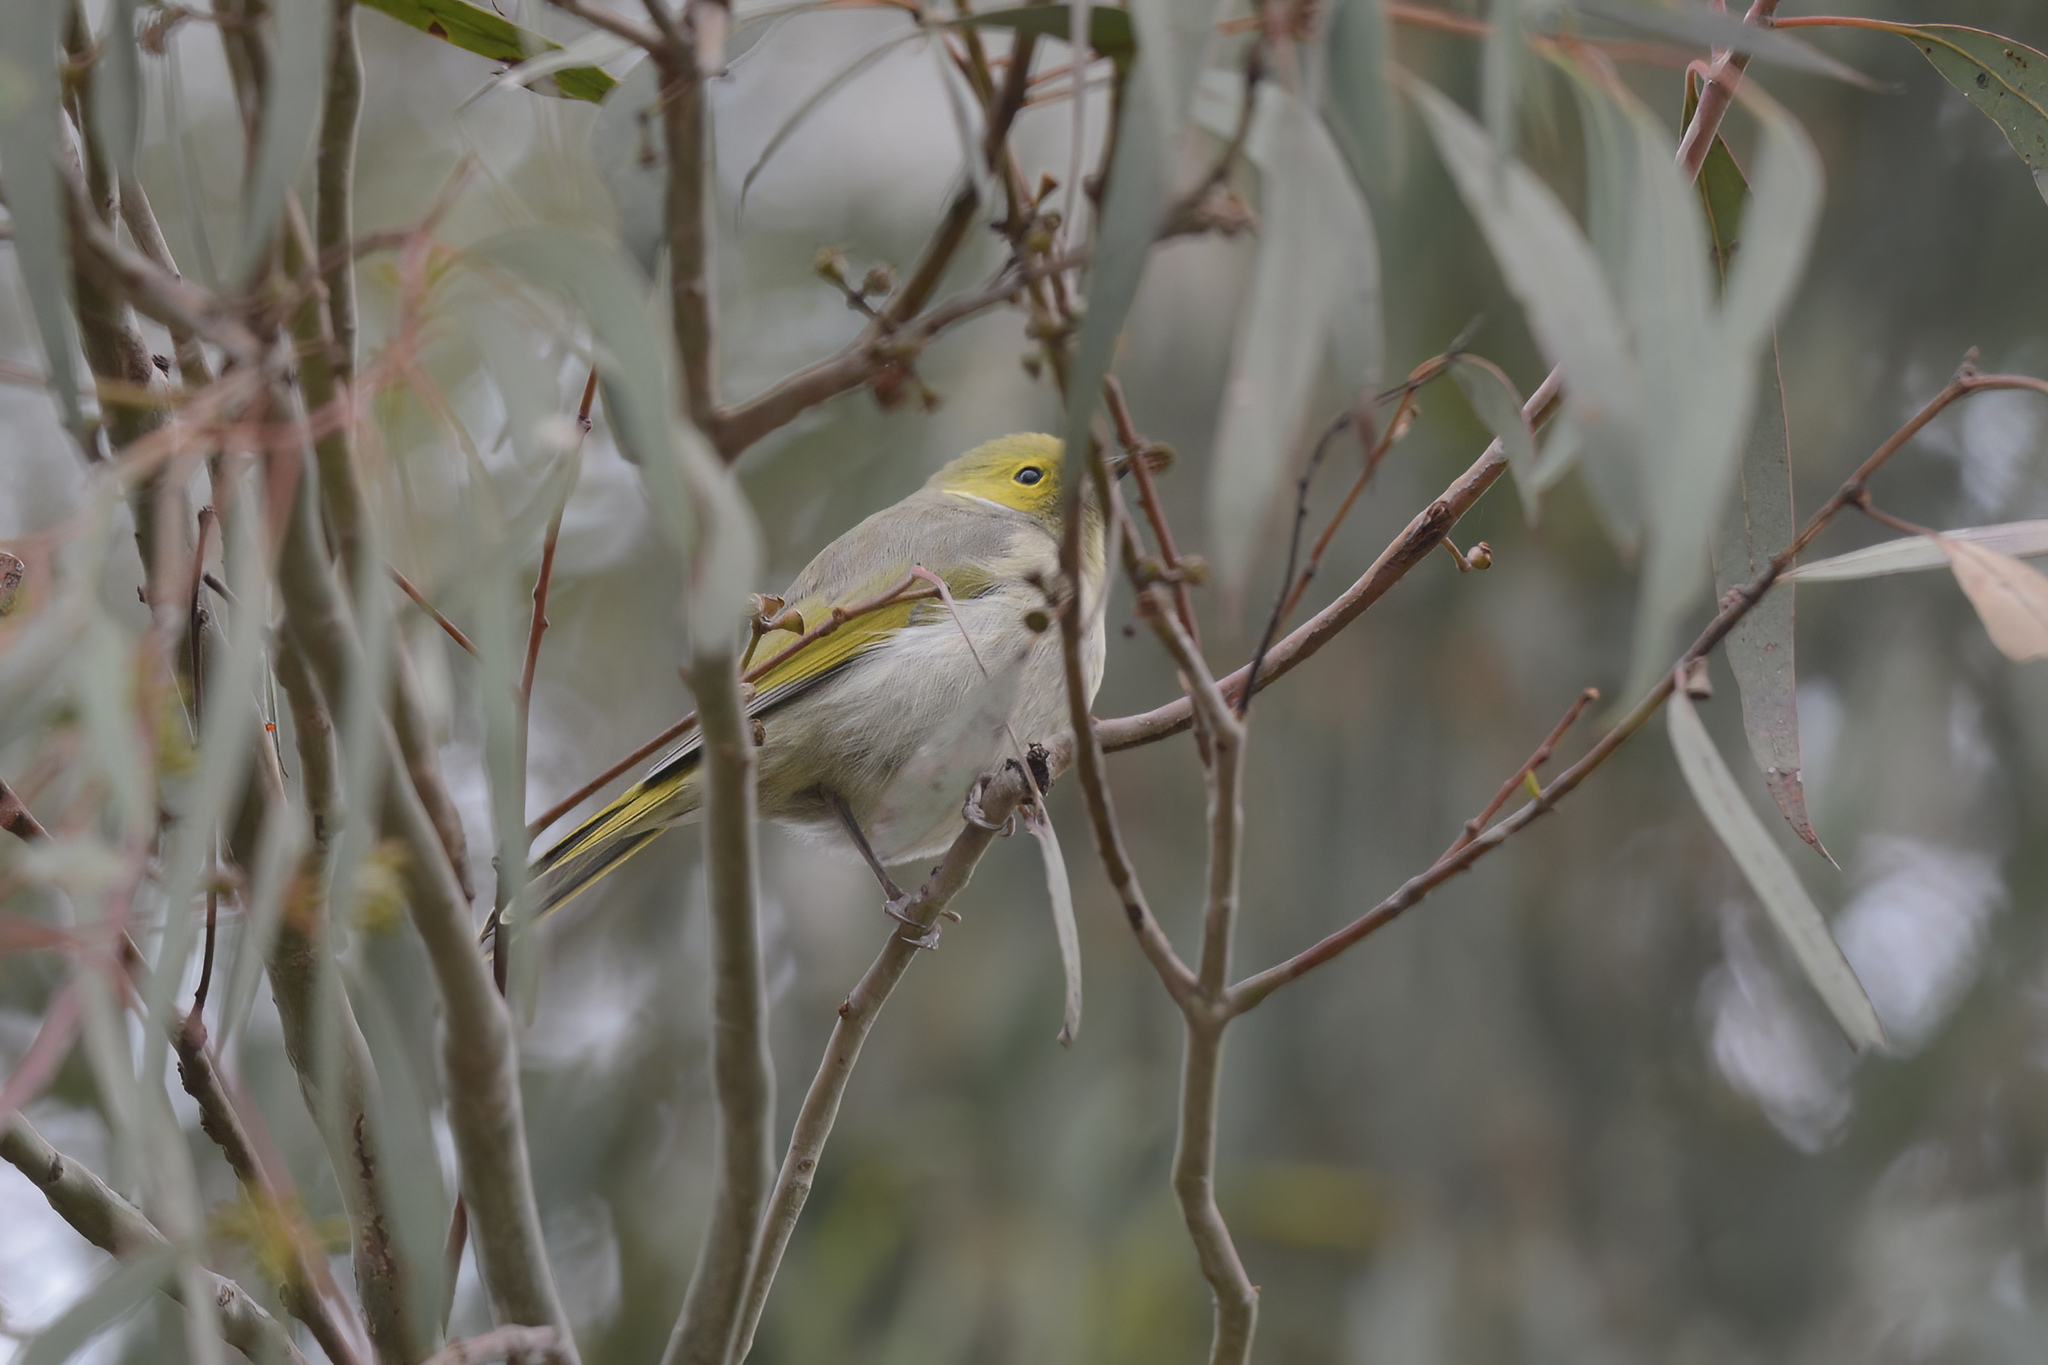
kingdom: Animalia
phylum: Chordata
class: Aves
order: Passeriformes
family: Meliphagidae
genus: Ptilotula
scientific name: Ptilotula penicillata
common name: White-plumed honeyeater
